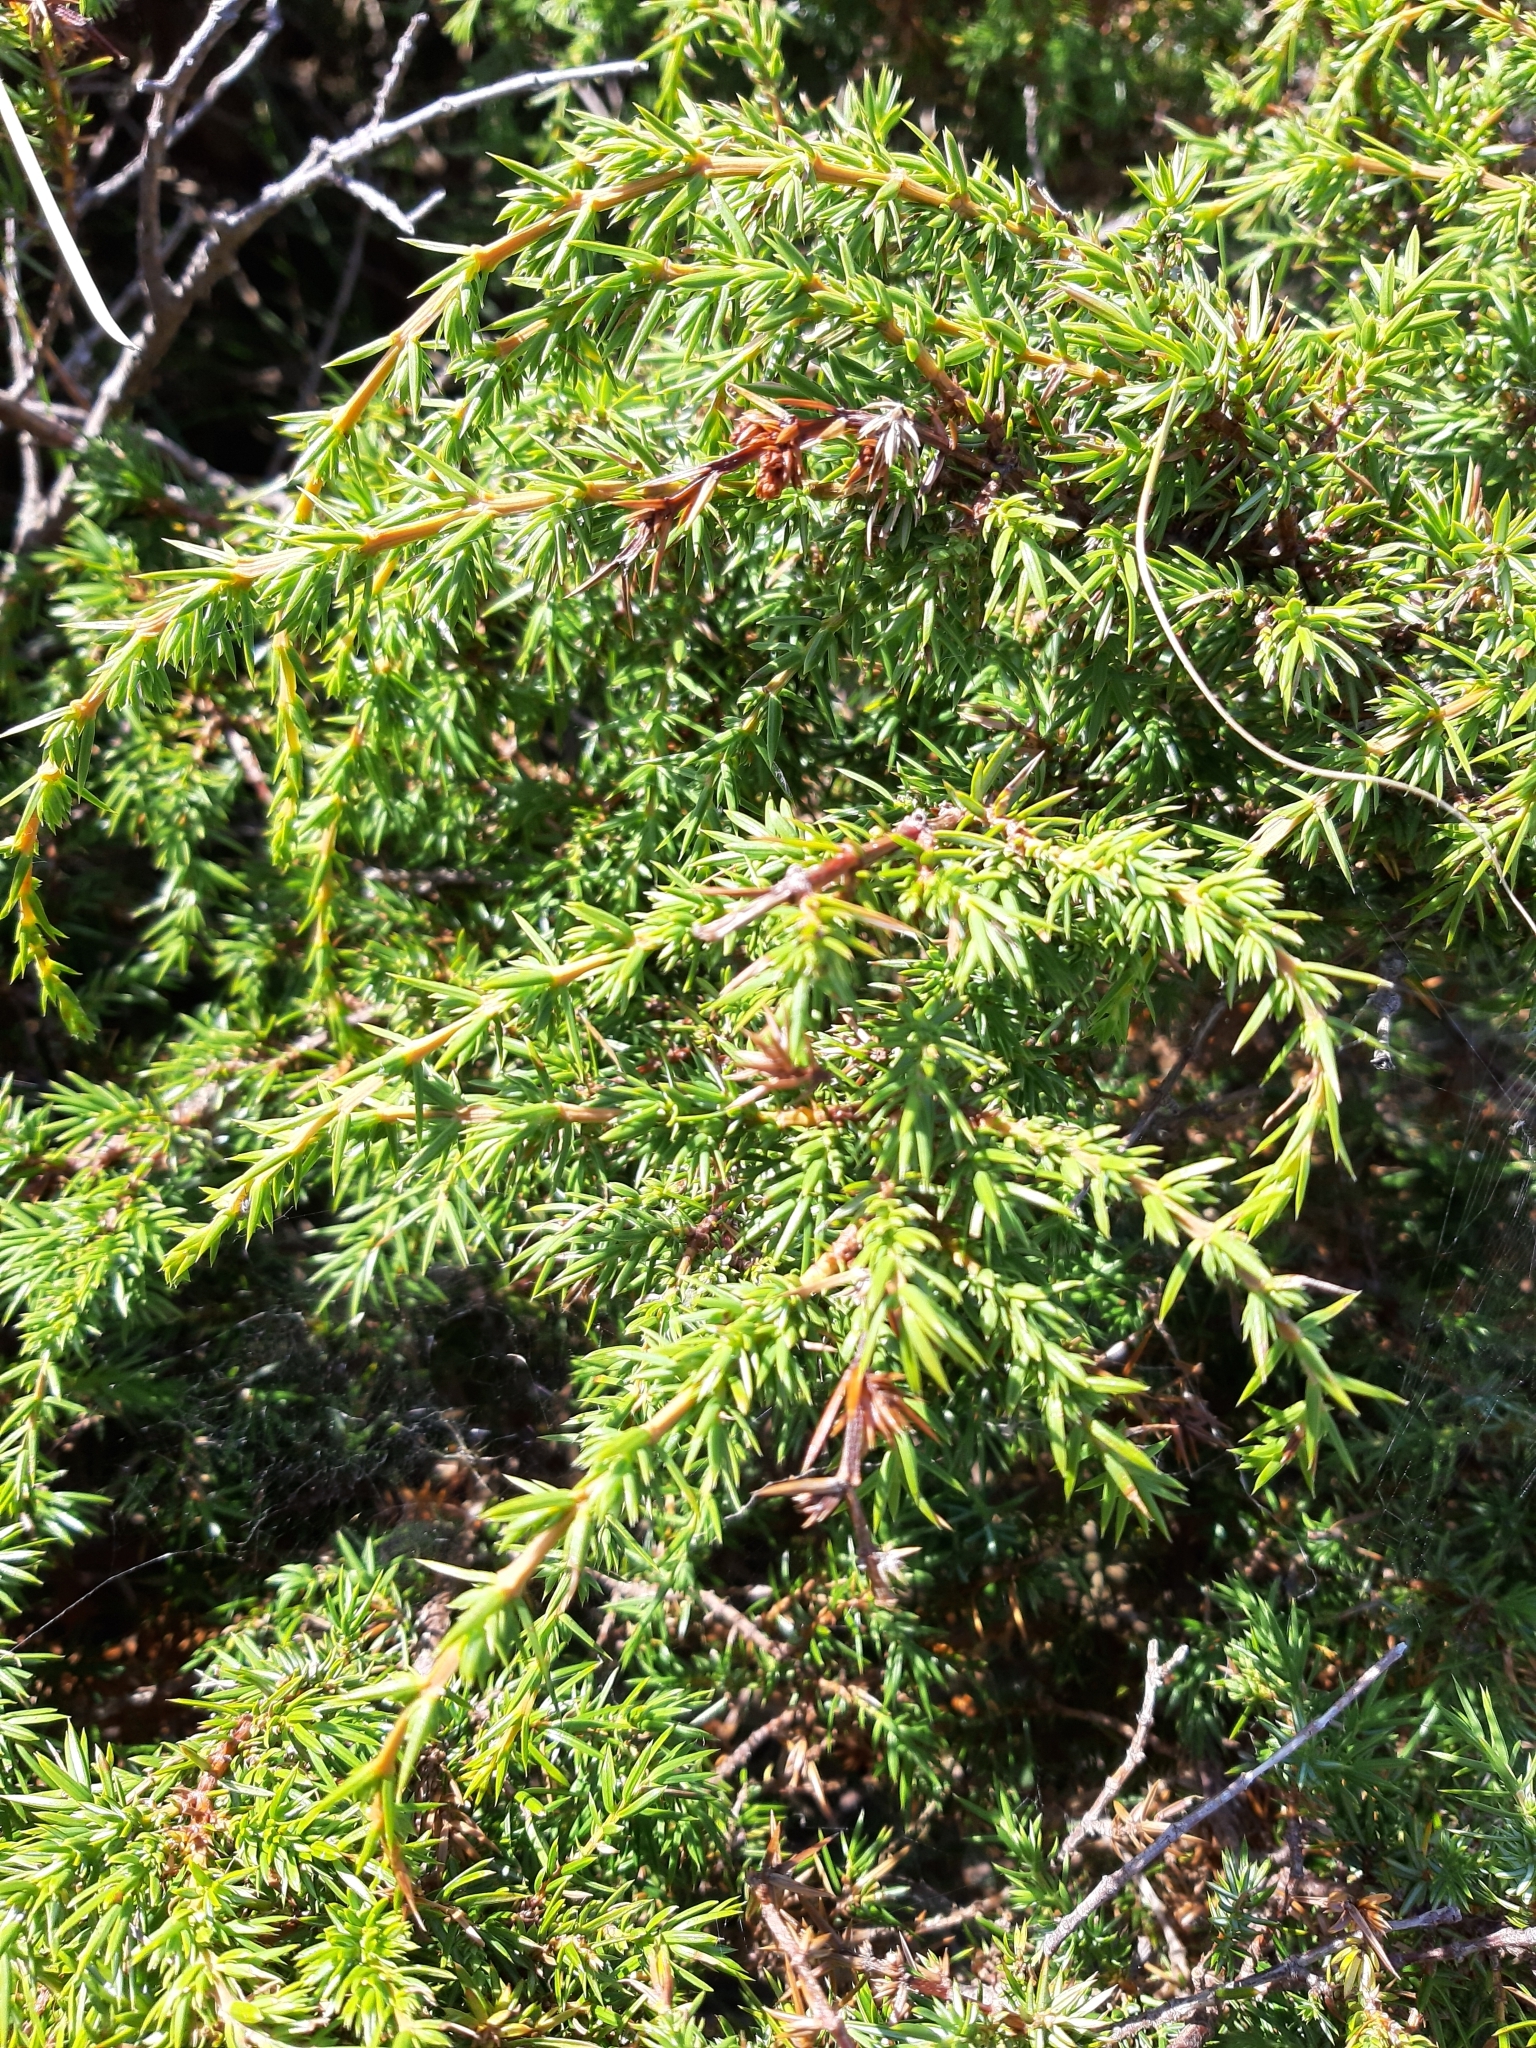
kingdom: Plantae
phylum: Tracheophyta
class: Pinopsida
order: Pinales
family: Cupressaceae
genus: Juniperus
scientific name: Juniperus communis
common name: Common juniper
